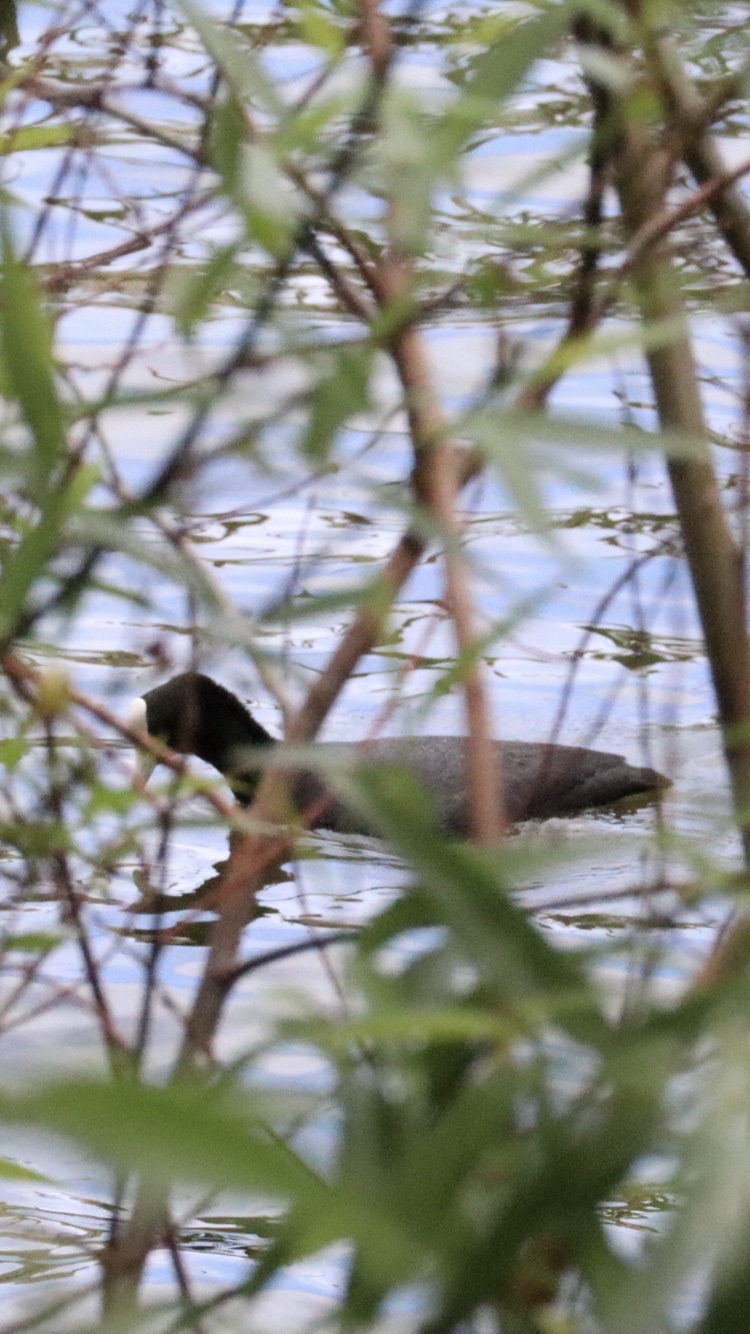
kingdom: Animalia
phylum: Chordata
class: Aves
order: Gruiformes
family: Rallidae
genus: Fulica
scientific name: Fulica atra
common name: Eurasian coot
